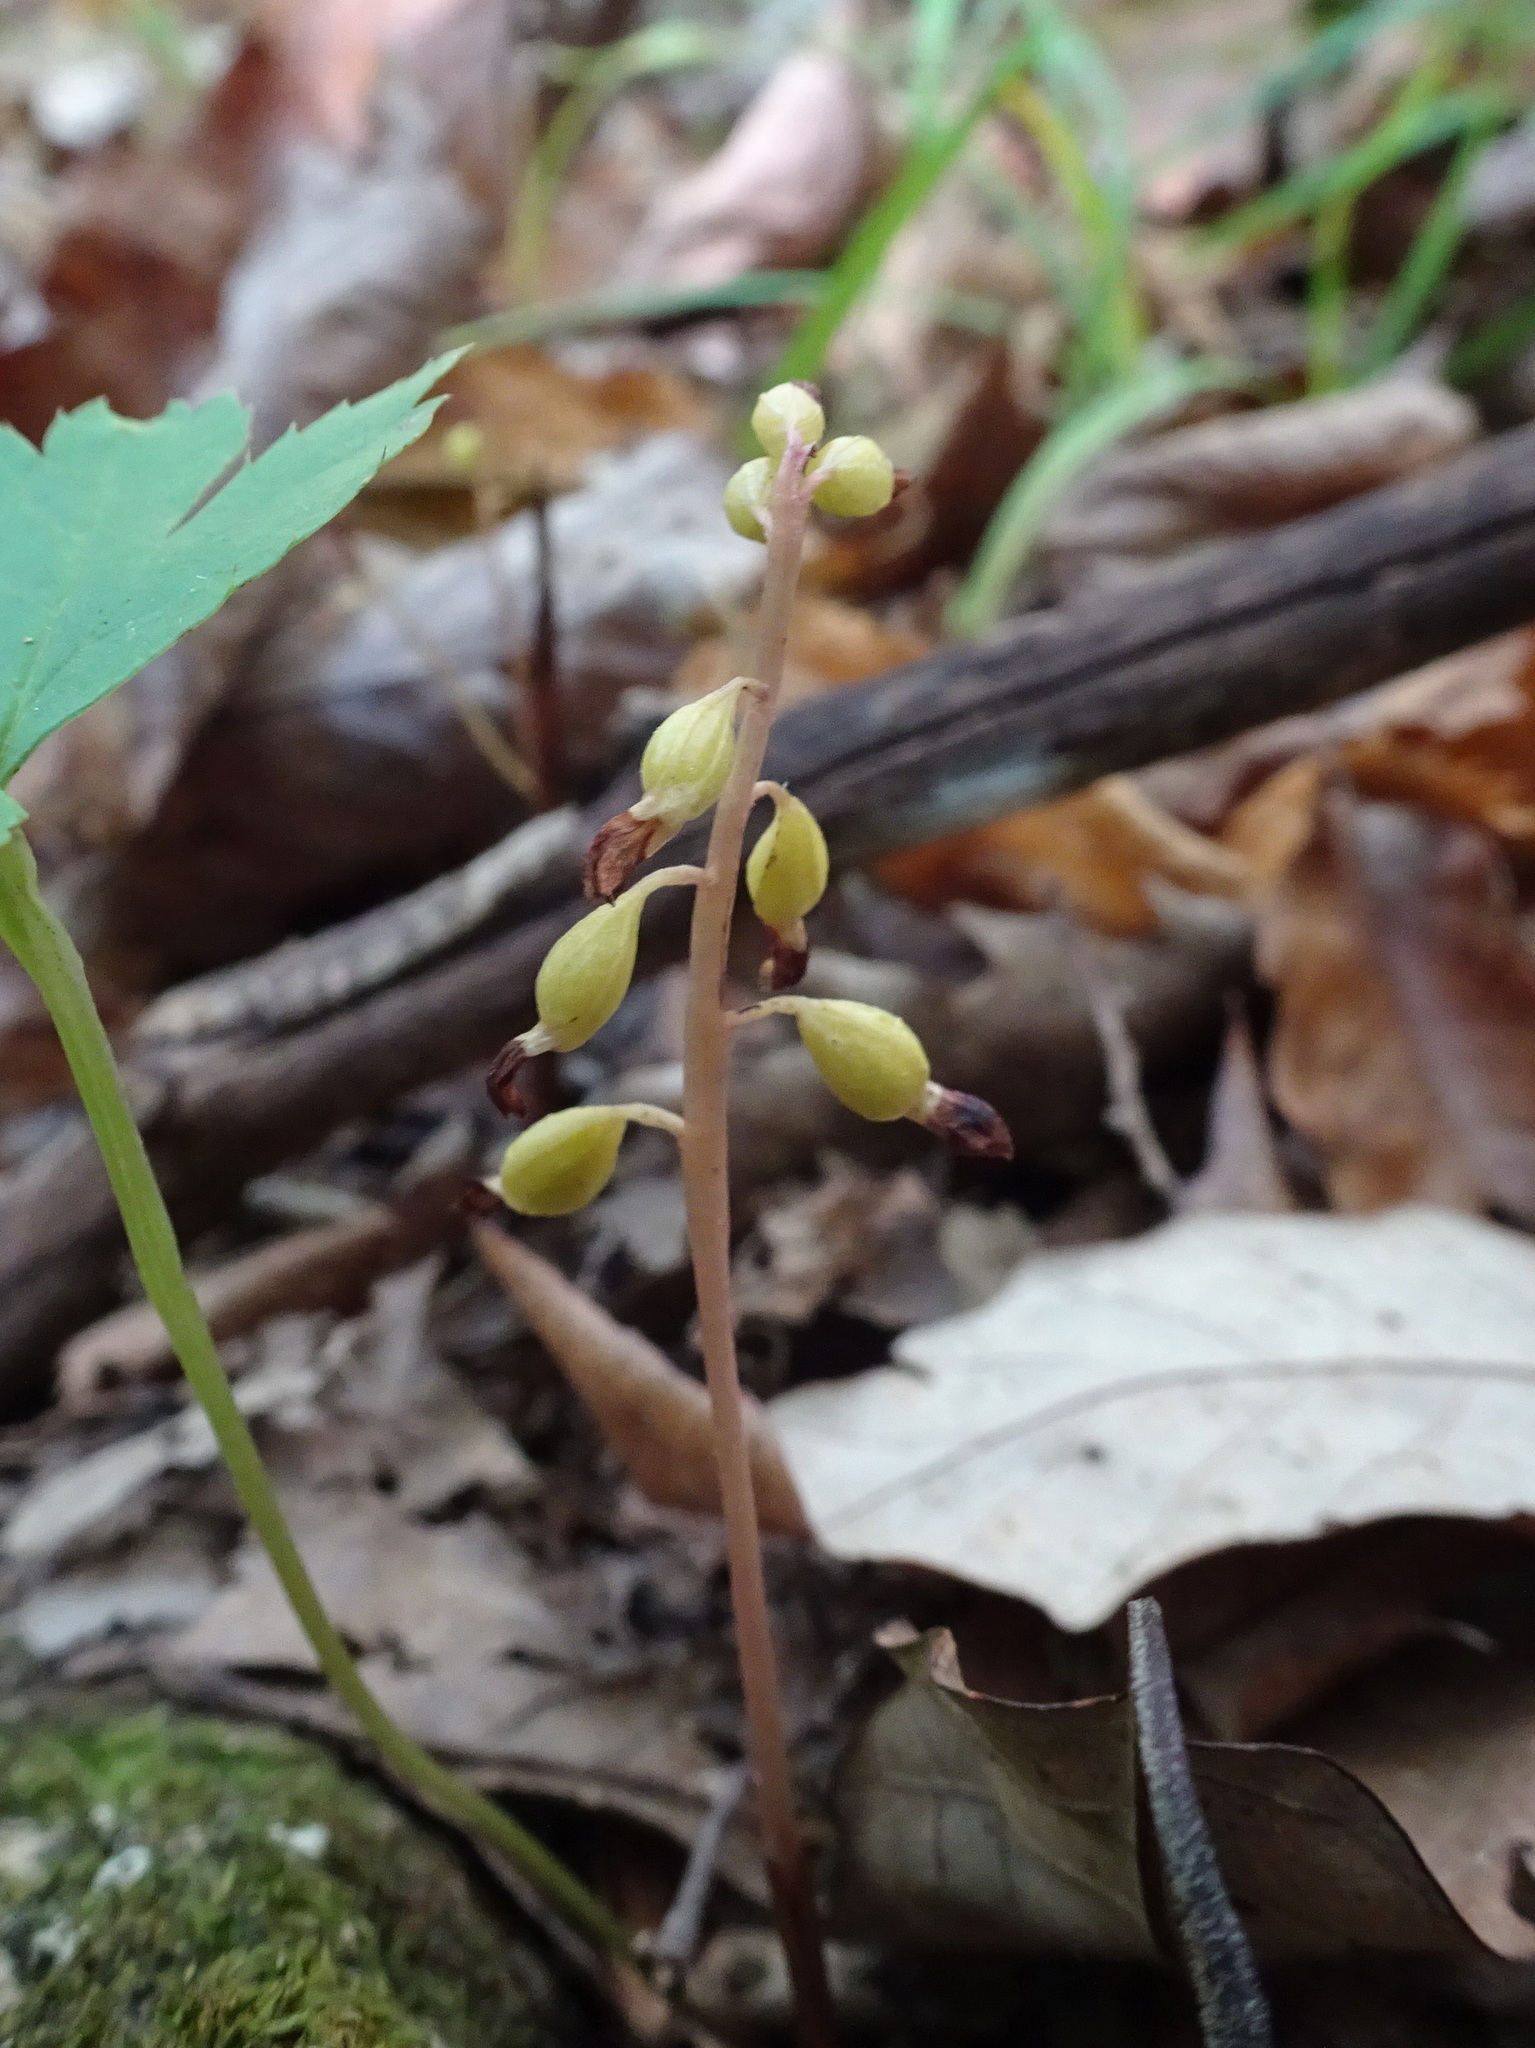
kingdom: Plantae
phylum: Tracheophyta
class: Liliopsida
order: Asparagales
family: Orchidaceae
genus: Corallorhiza
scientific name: Corallorhiza odontorhiza
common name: Autumn coralroot
